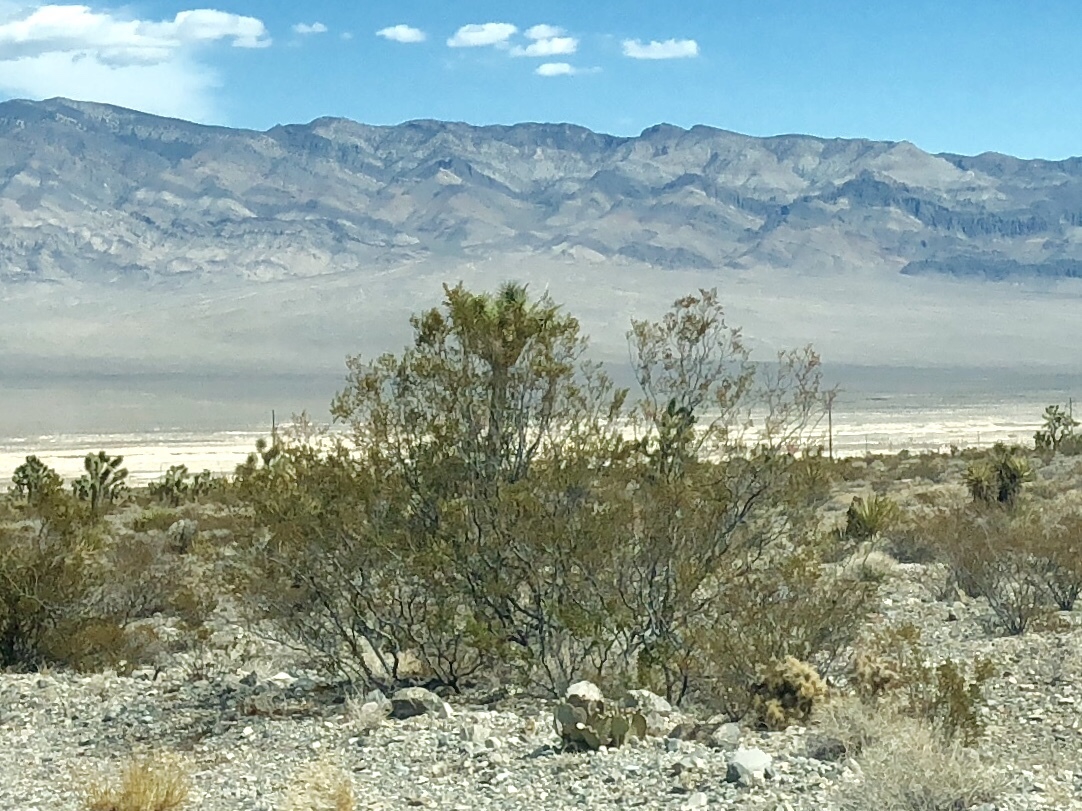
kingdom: Plantae
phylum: Tracheophyta
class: Magnoliopsida
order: Zygophyllales
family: Zygophyllaceae
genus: Larrea
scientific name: Larrea tridentata
